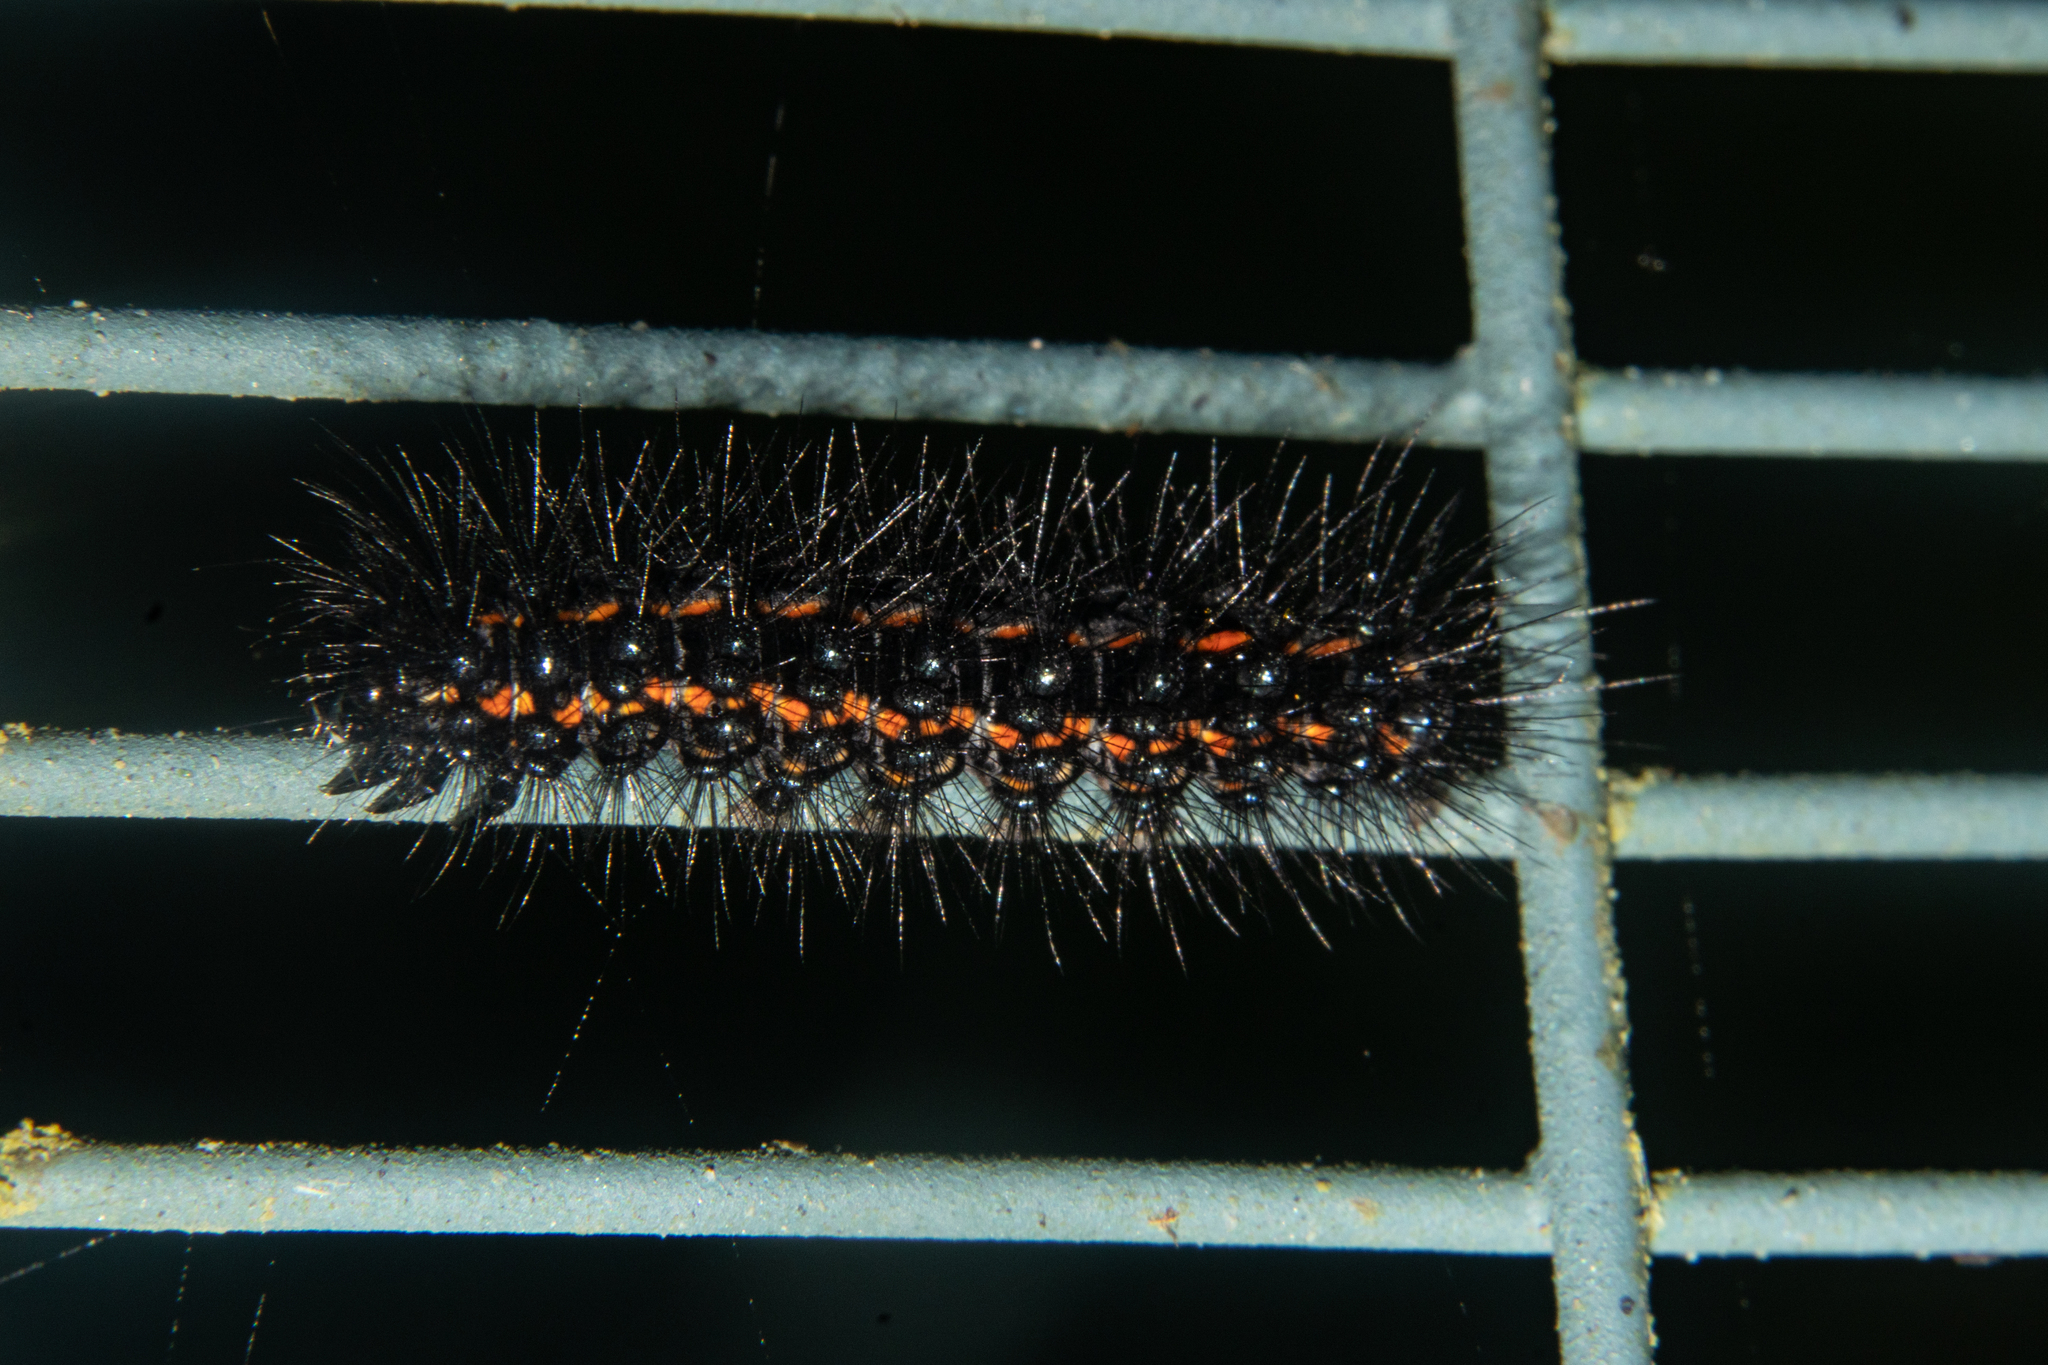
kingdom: Animalia
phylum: Arthropoda
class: Insecta
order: Lepidoptera
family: Erebidae
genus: Nyctemera
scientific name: Nyctemera annulatum
